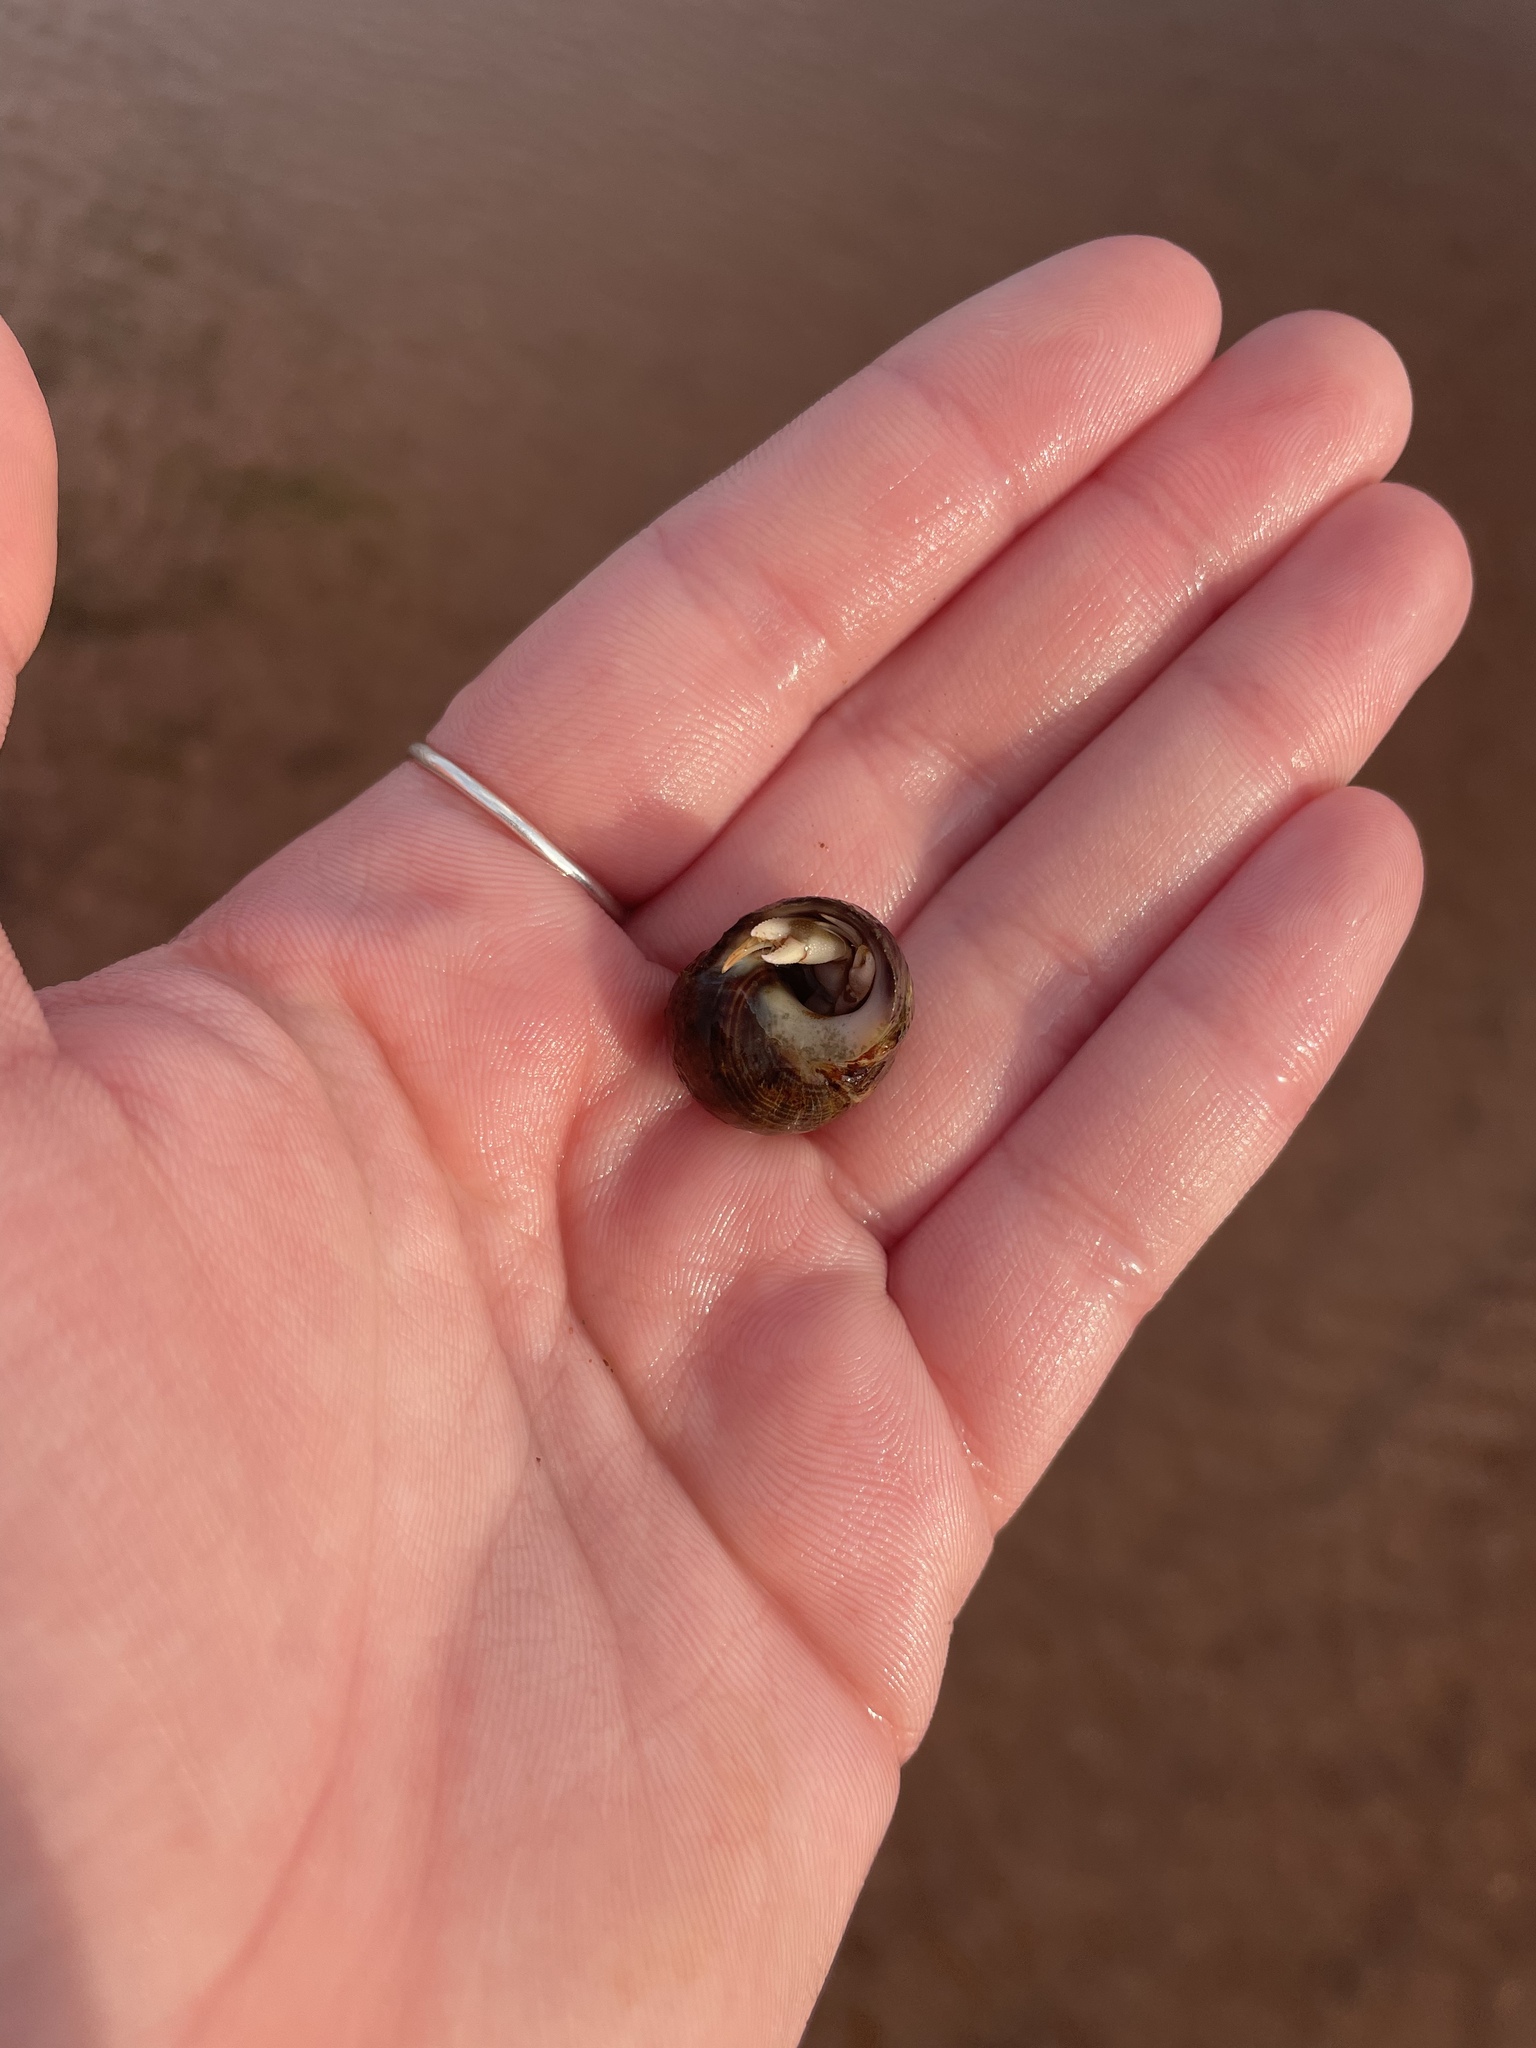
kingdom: Animalia
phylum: Arthropoda
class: Malacostraca
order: Decapoda
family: Paguridae
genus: Pagurus
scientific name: Pagurus longicarpus
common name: Long-armed hermit crab
